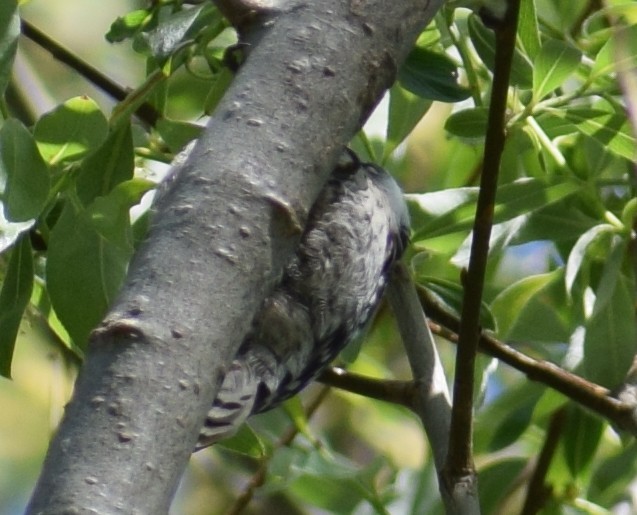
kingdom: Animalia
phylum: Chordata
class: Aves
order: Piciformes
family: Picidae
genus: Dryobates
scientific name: Dryobates minor
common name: Lesser spotted woodpecker
